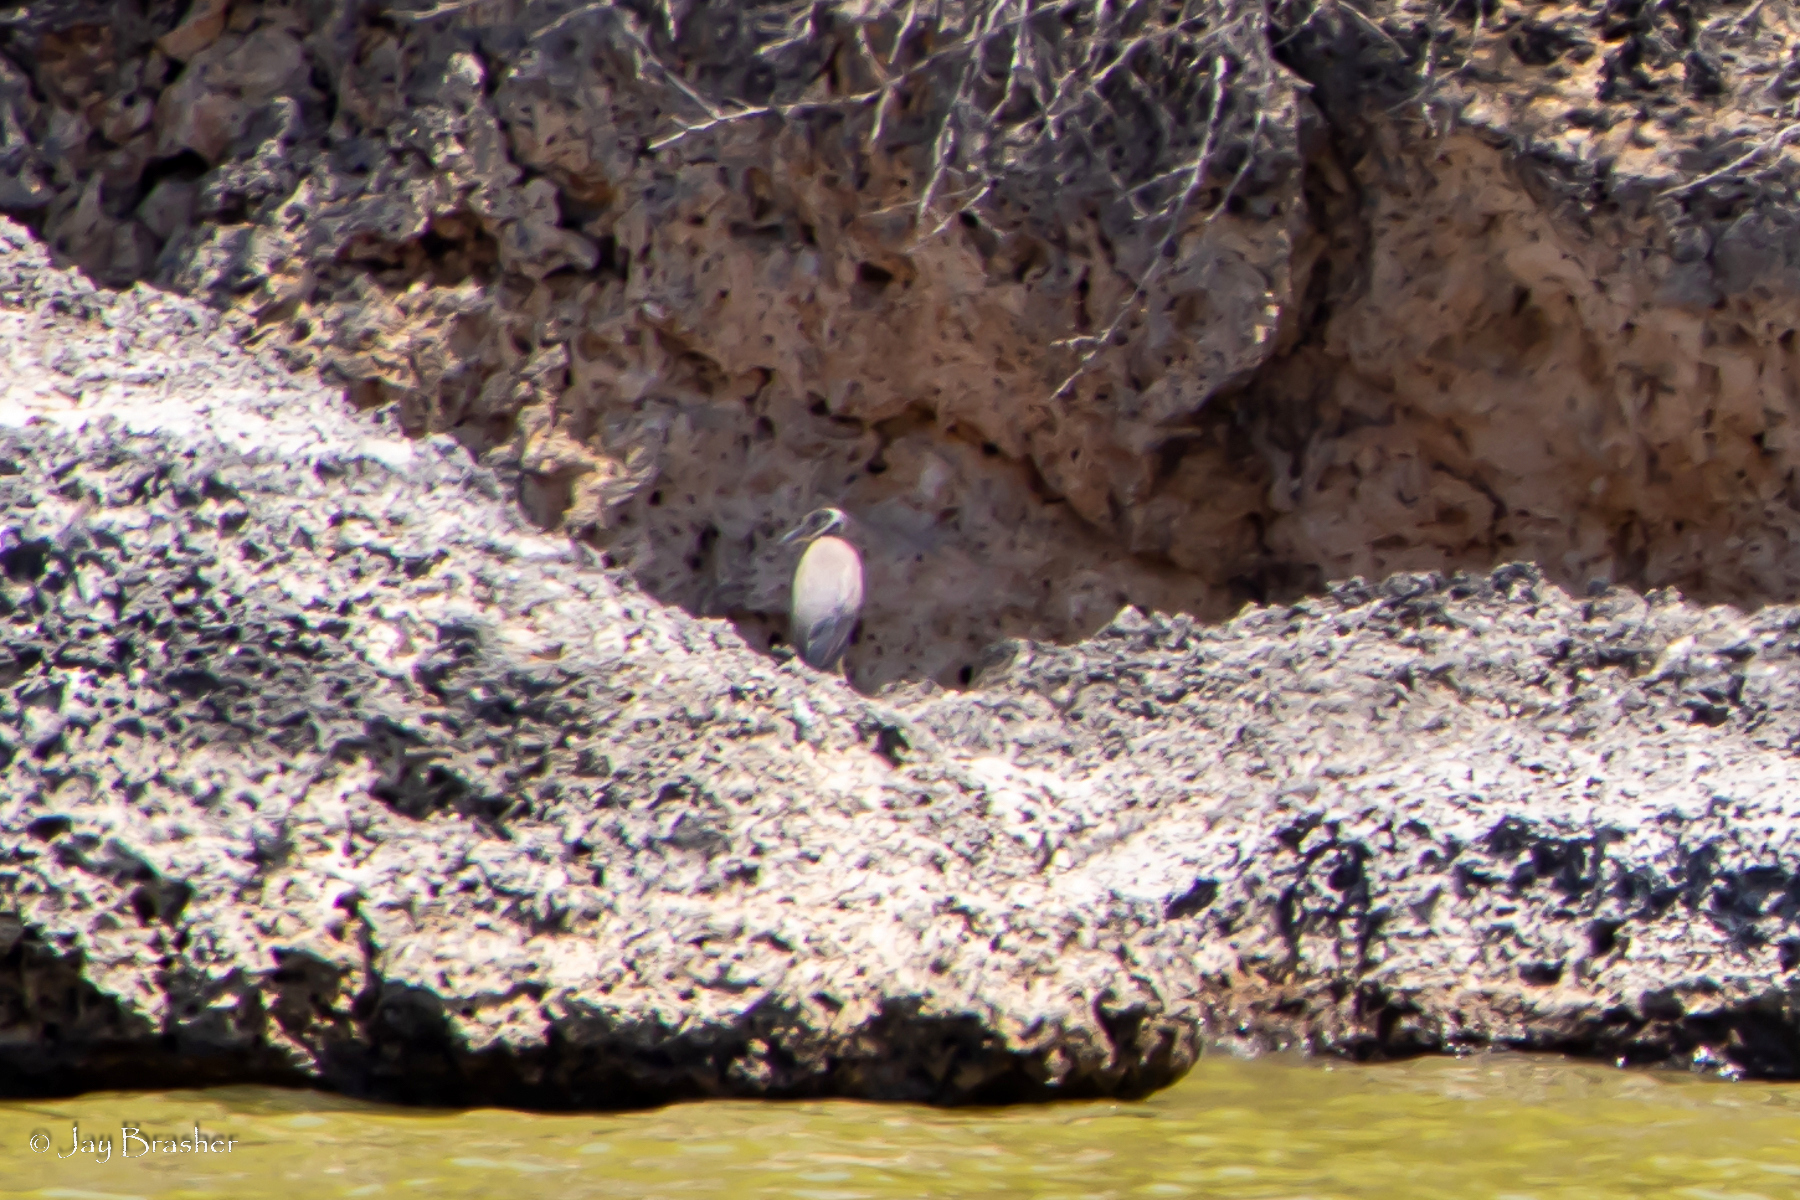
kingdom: Animalia
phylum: Chordata
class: Aves
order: Pelecaniformes
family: Ardeidae
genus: Nyctanassa
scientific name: Nyctanassa violacea
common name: Yellow-crowned night heron
